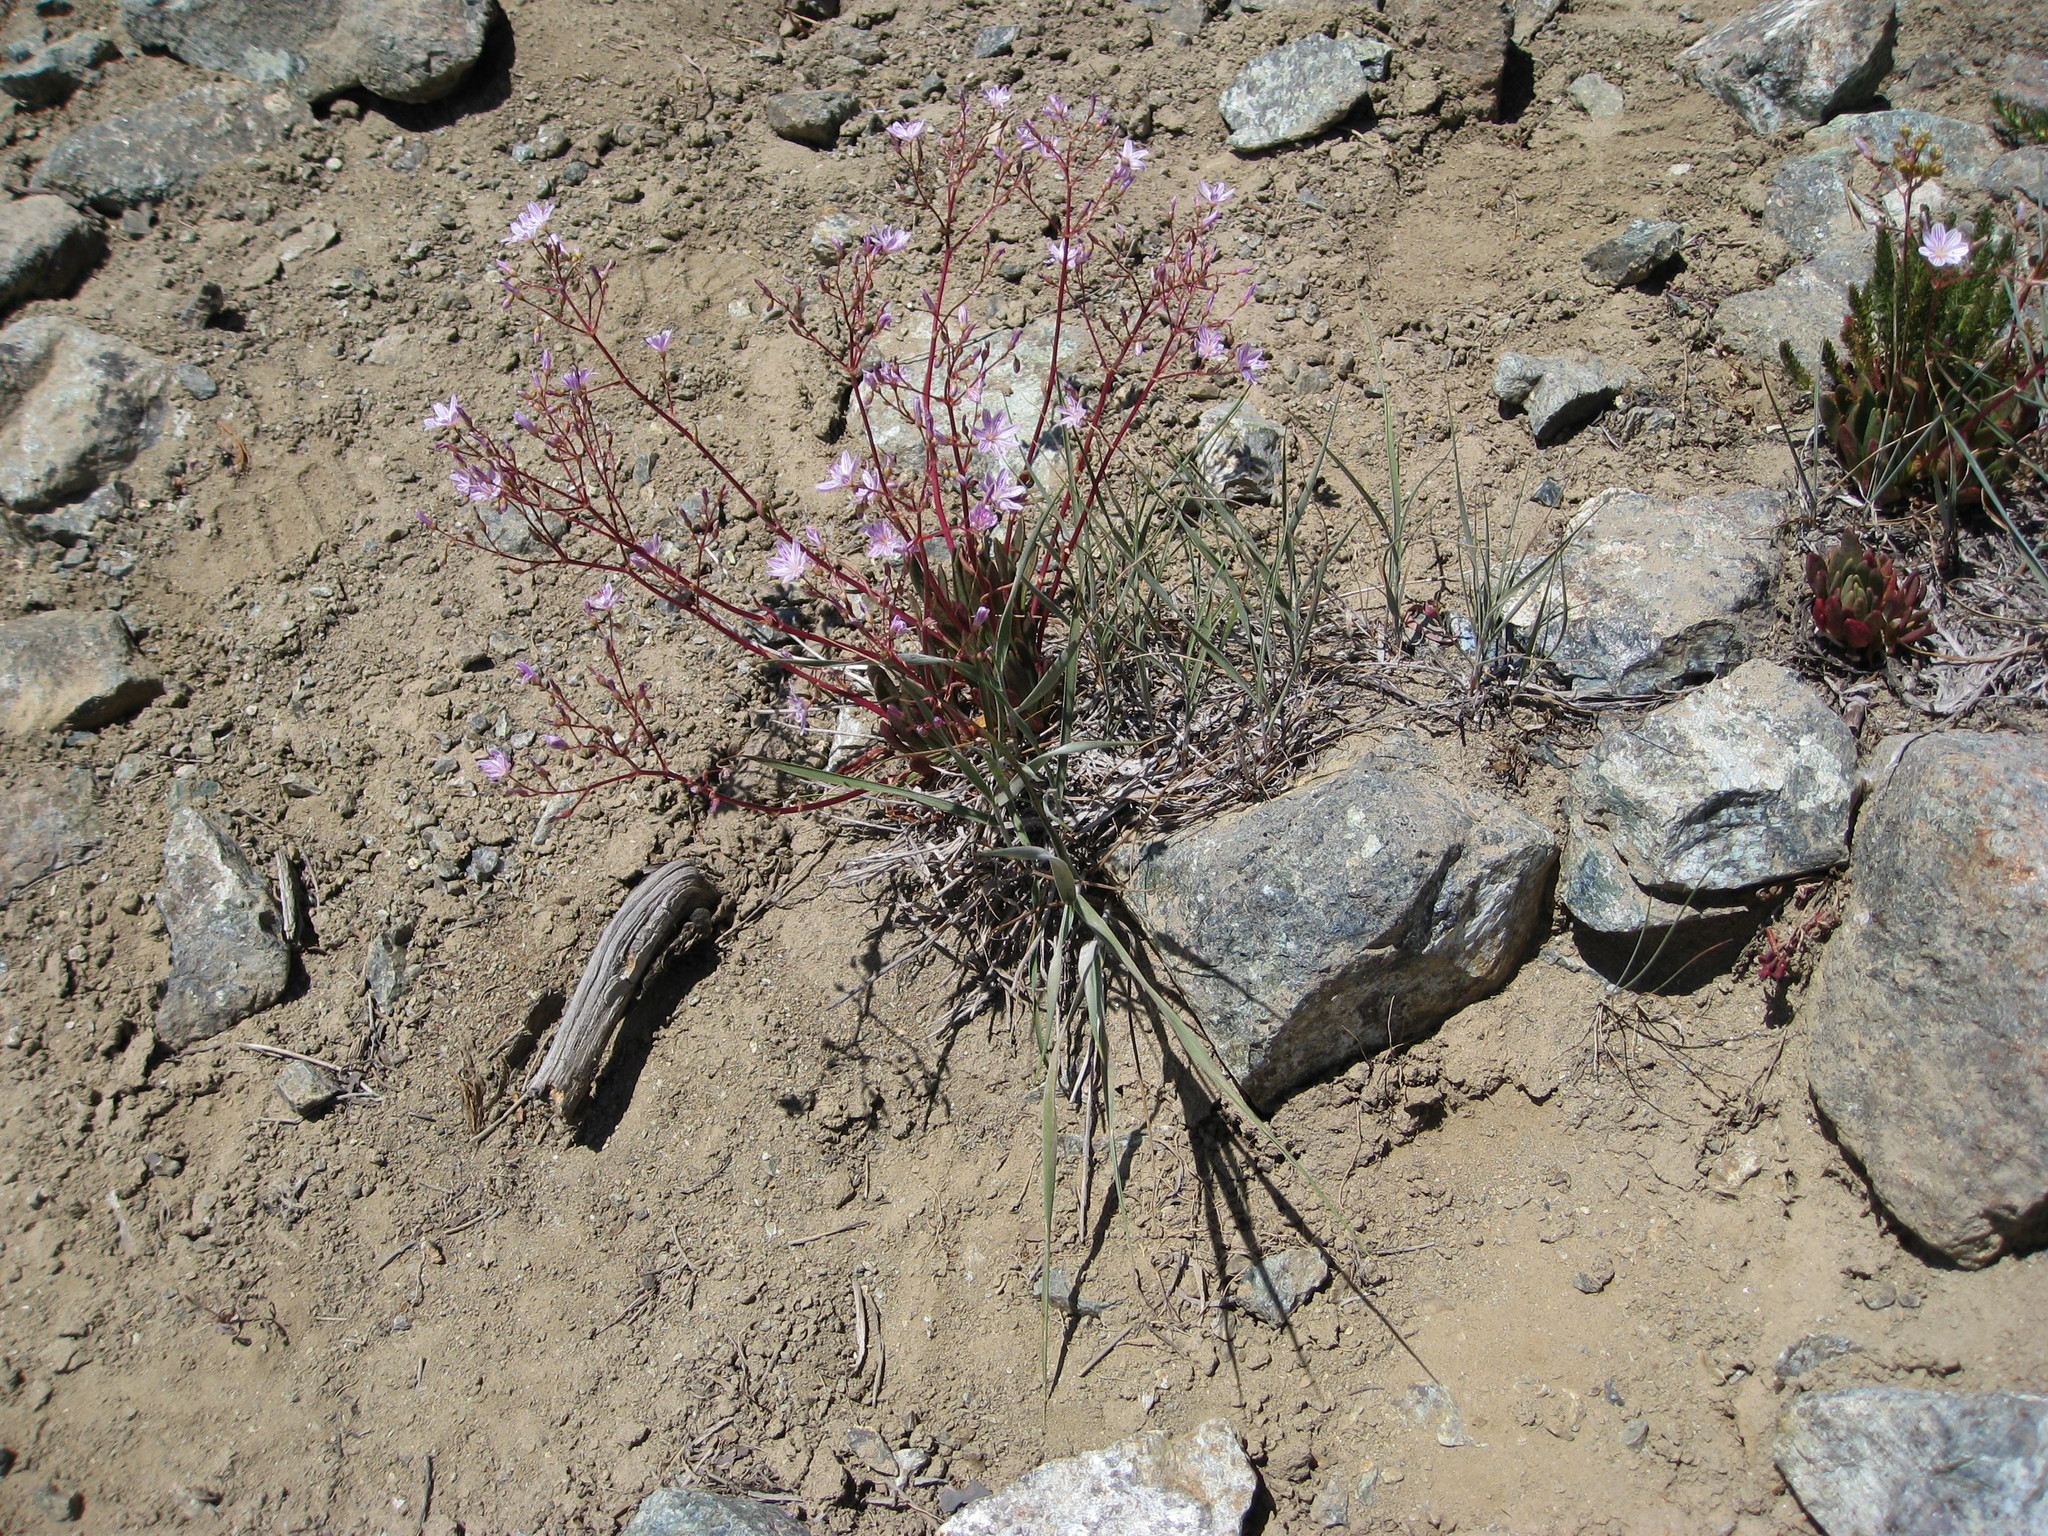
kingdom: Plantae
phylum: Tracheophyta
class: Magnoliopsida
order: Caryophyllales
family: Montiaceae
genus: Lewisia
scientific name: Lewisia columbiana
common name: Columbia lewisia
